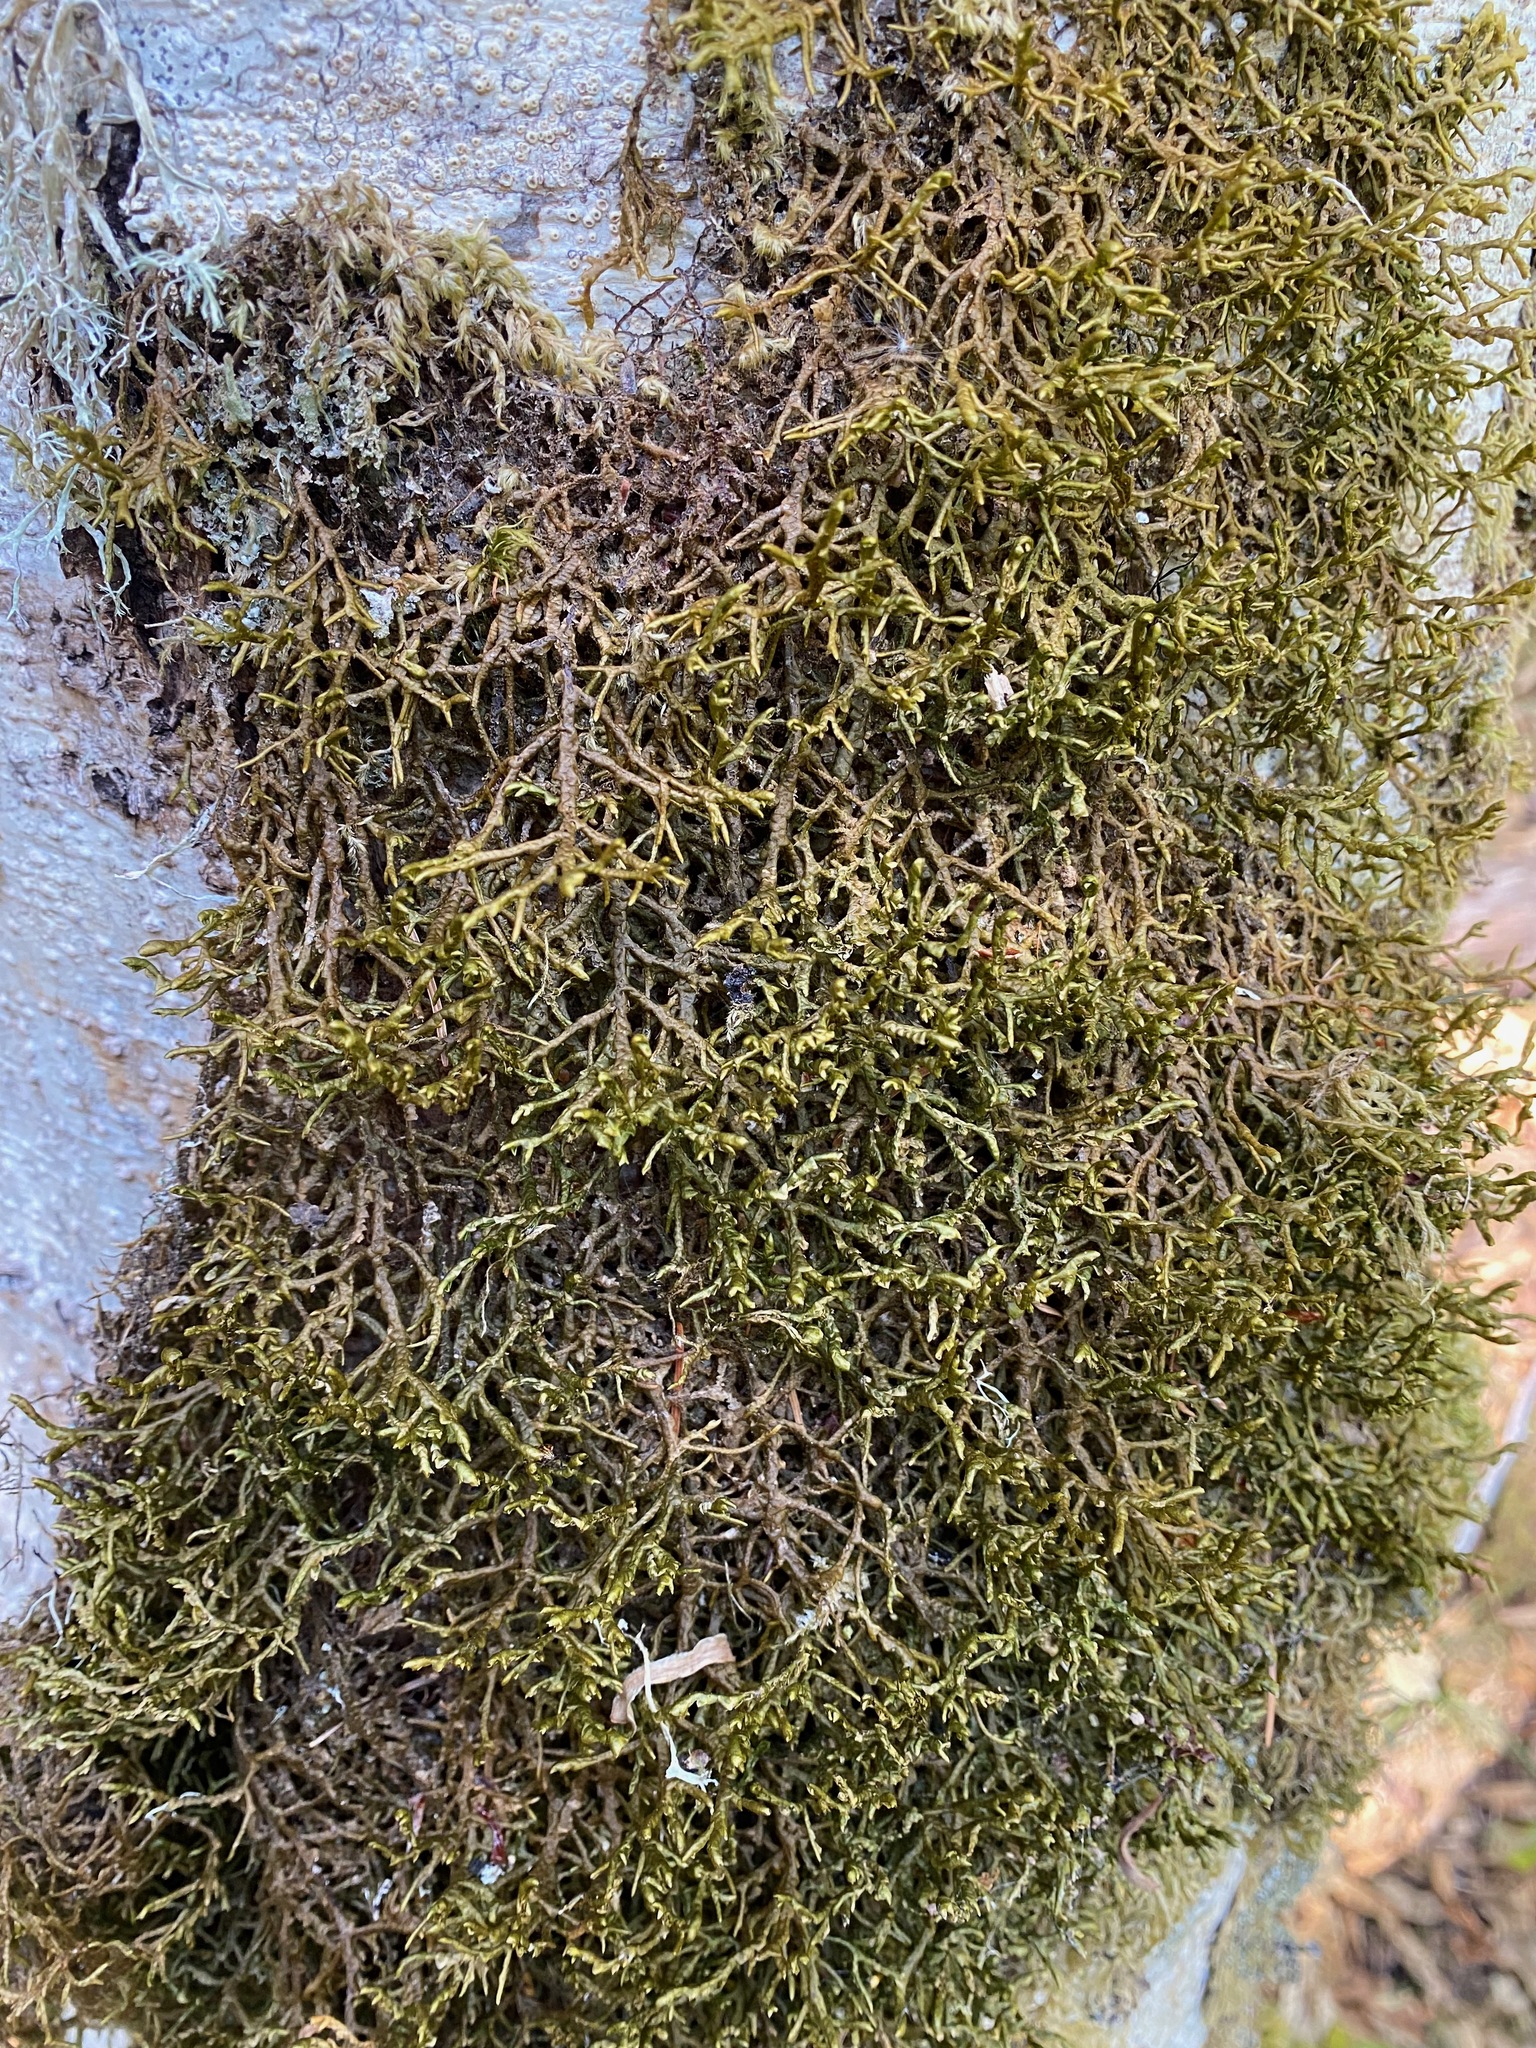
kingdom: Plantae
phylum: Marchantiophyta
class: Jungermanniopsida
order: Porellales
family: Porellaceae
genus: Porella
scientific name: Porella navicularis
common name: Tree ruffle liverwort
